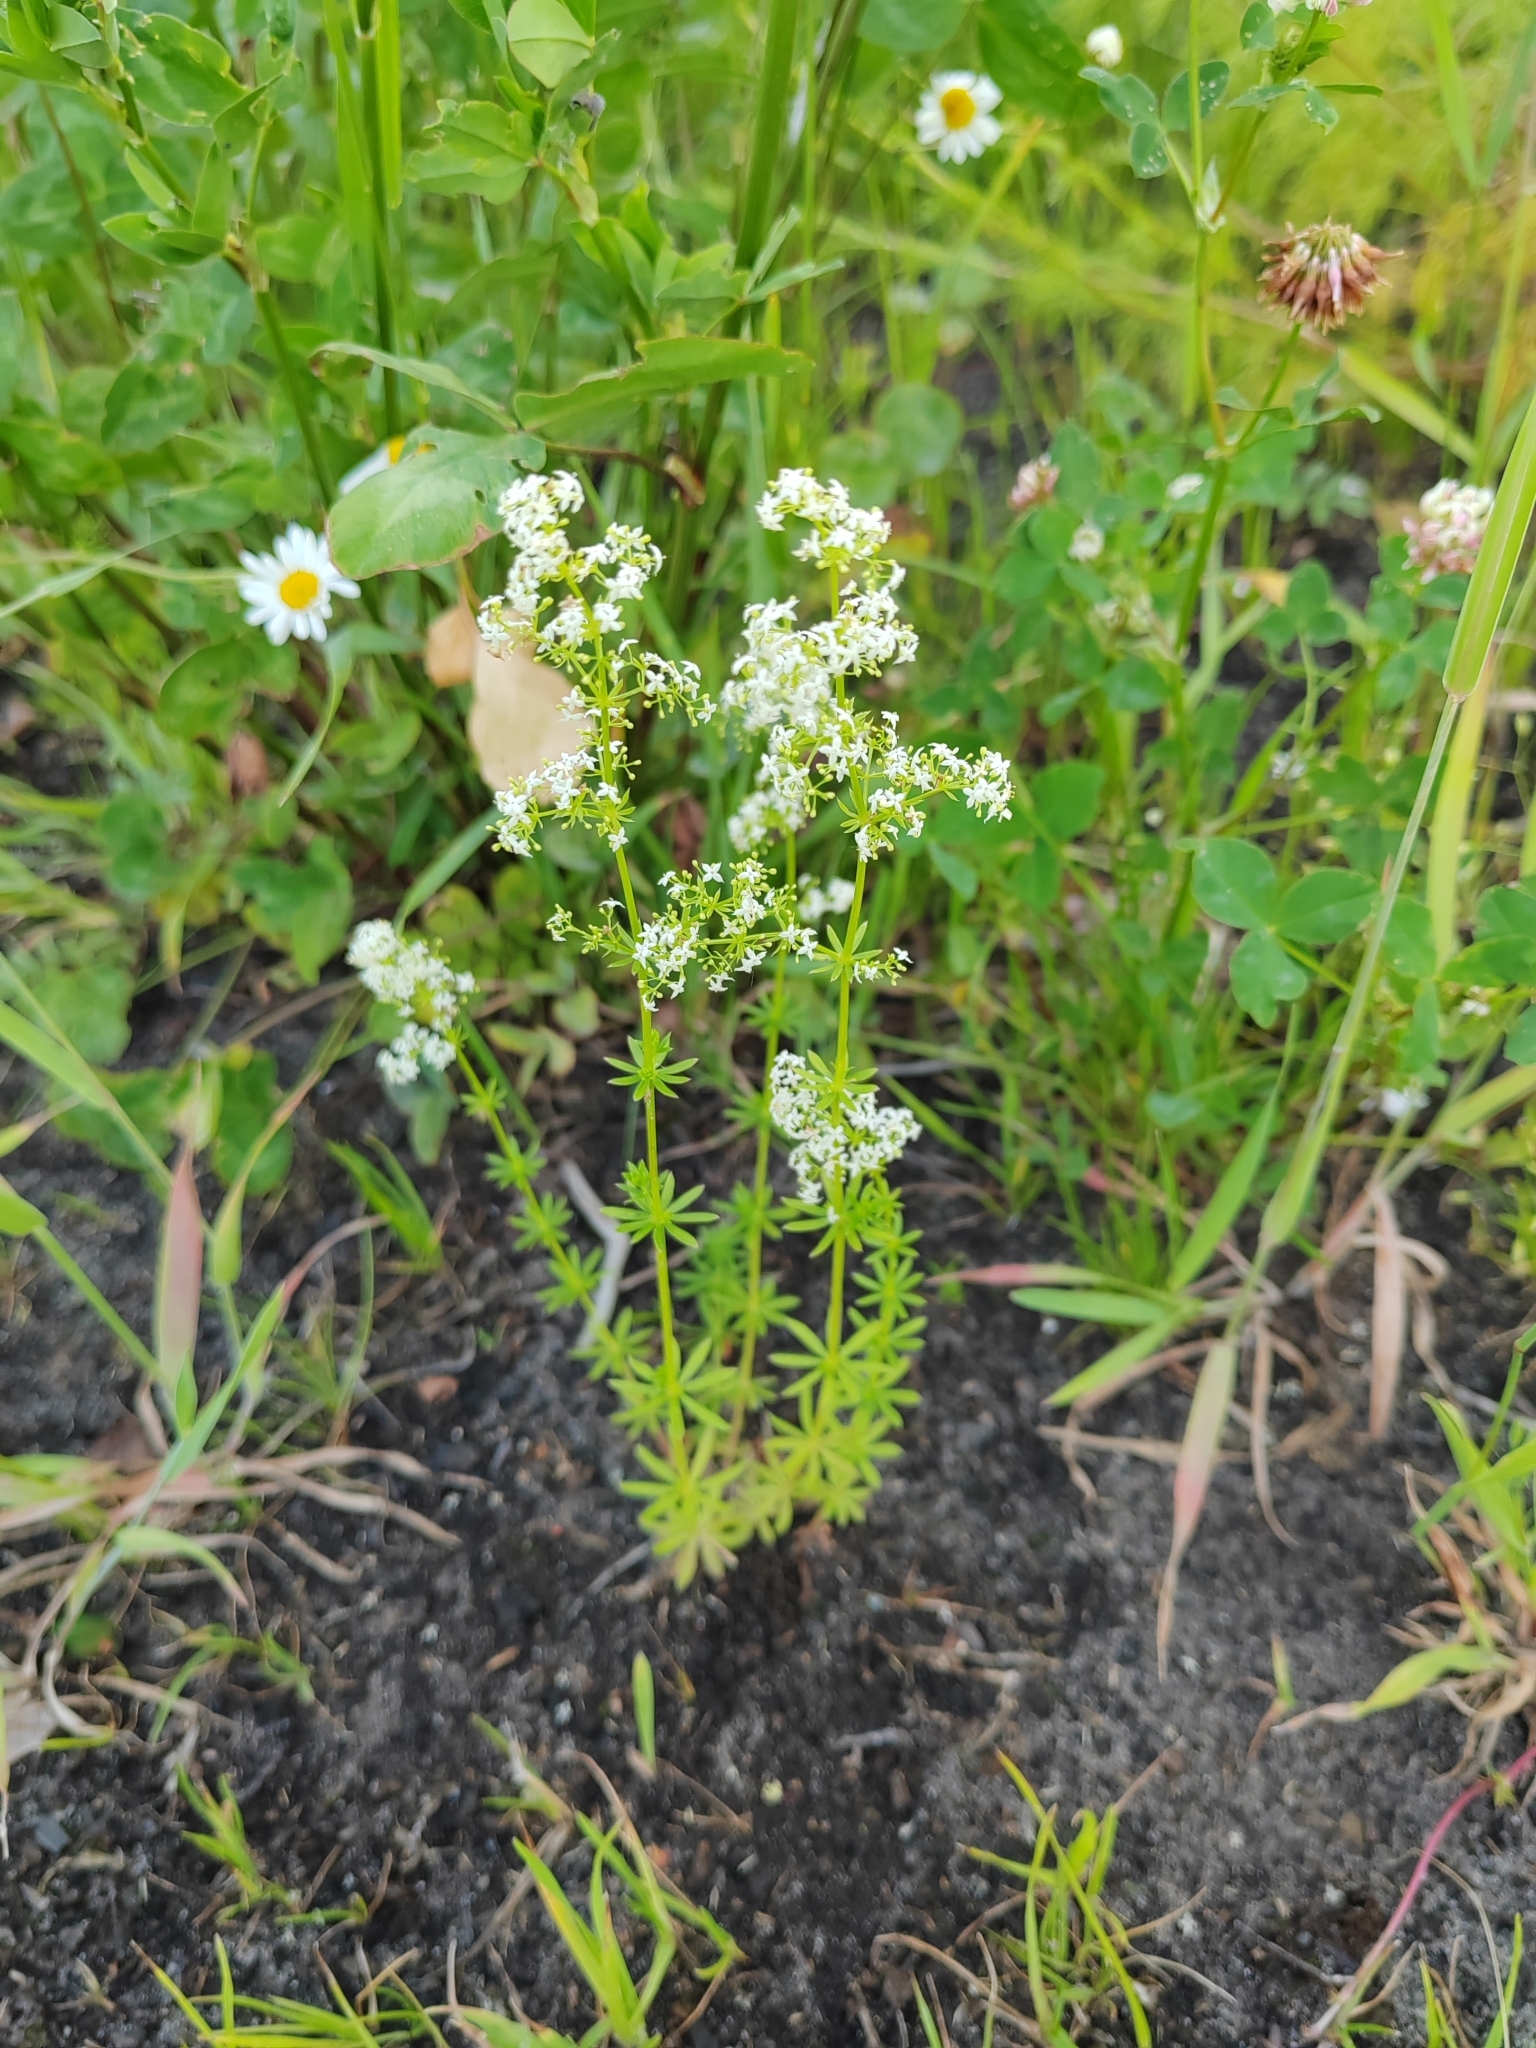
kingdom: Plantae
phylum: Tracheophyta
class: Magnoliopsida
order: Gentianales
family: Rubiaceae
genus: Galium
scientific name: Galium mollugo
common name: Hedge bedstraw
